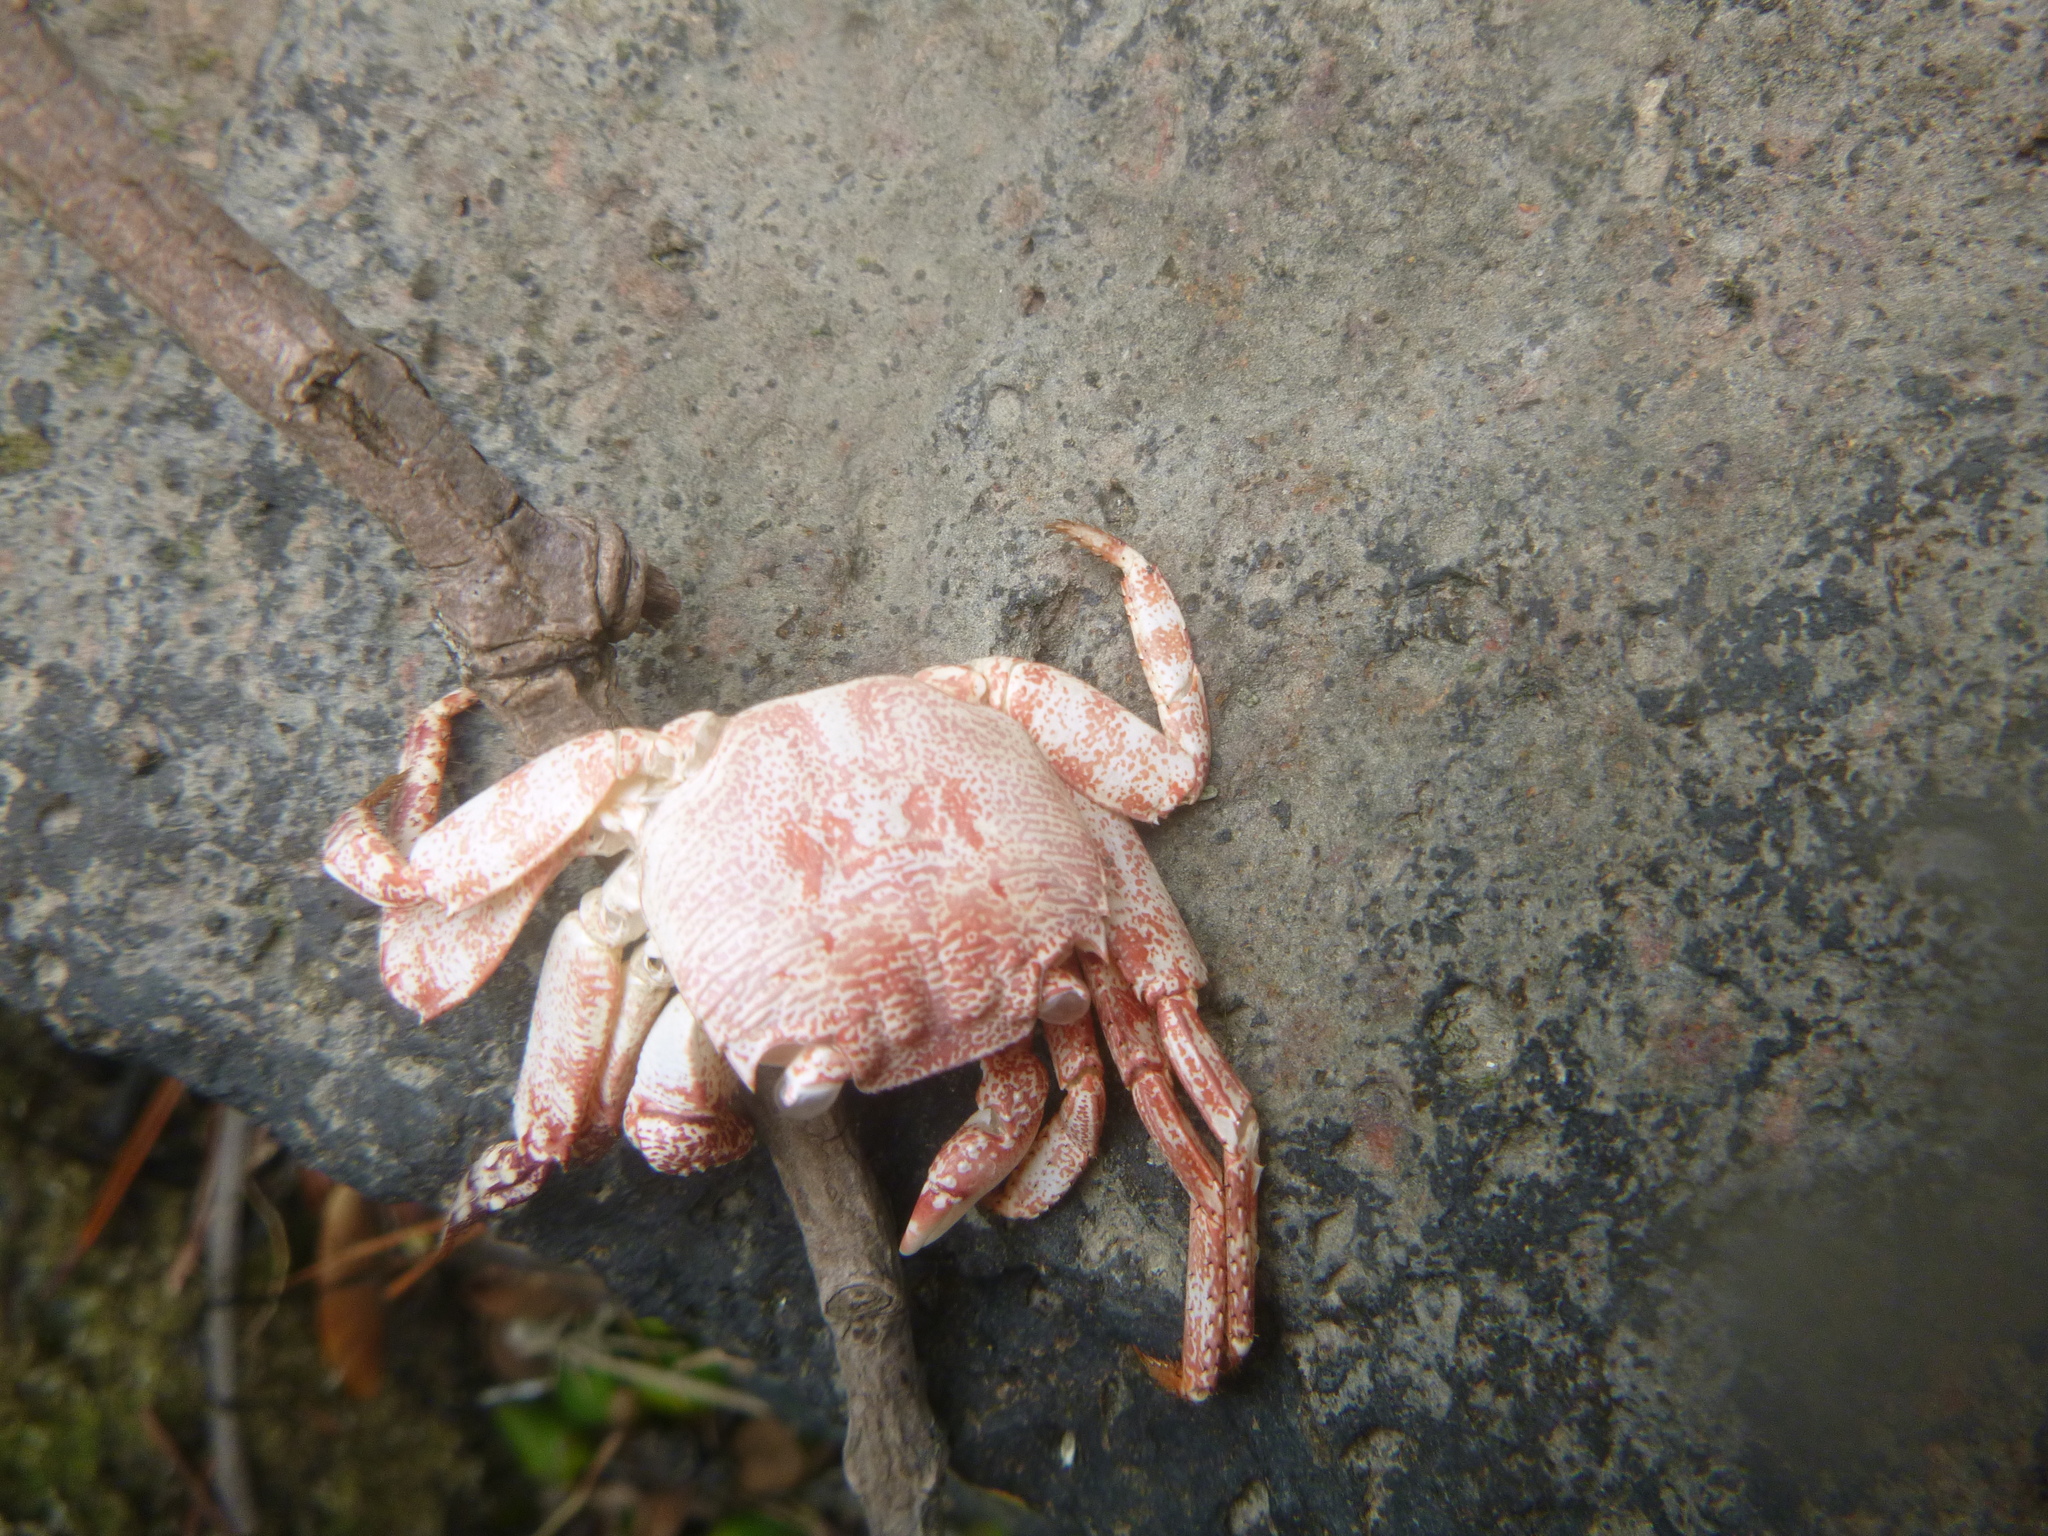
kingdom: Animalia
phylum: Arthropoda
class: Malacostraca
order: Decapoda
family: Grapsidae
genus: Leptograpsus
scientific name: Leptograpsus variegatus
